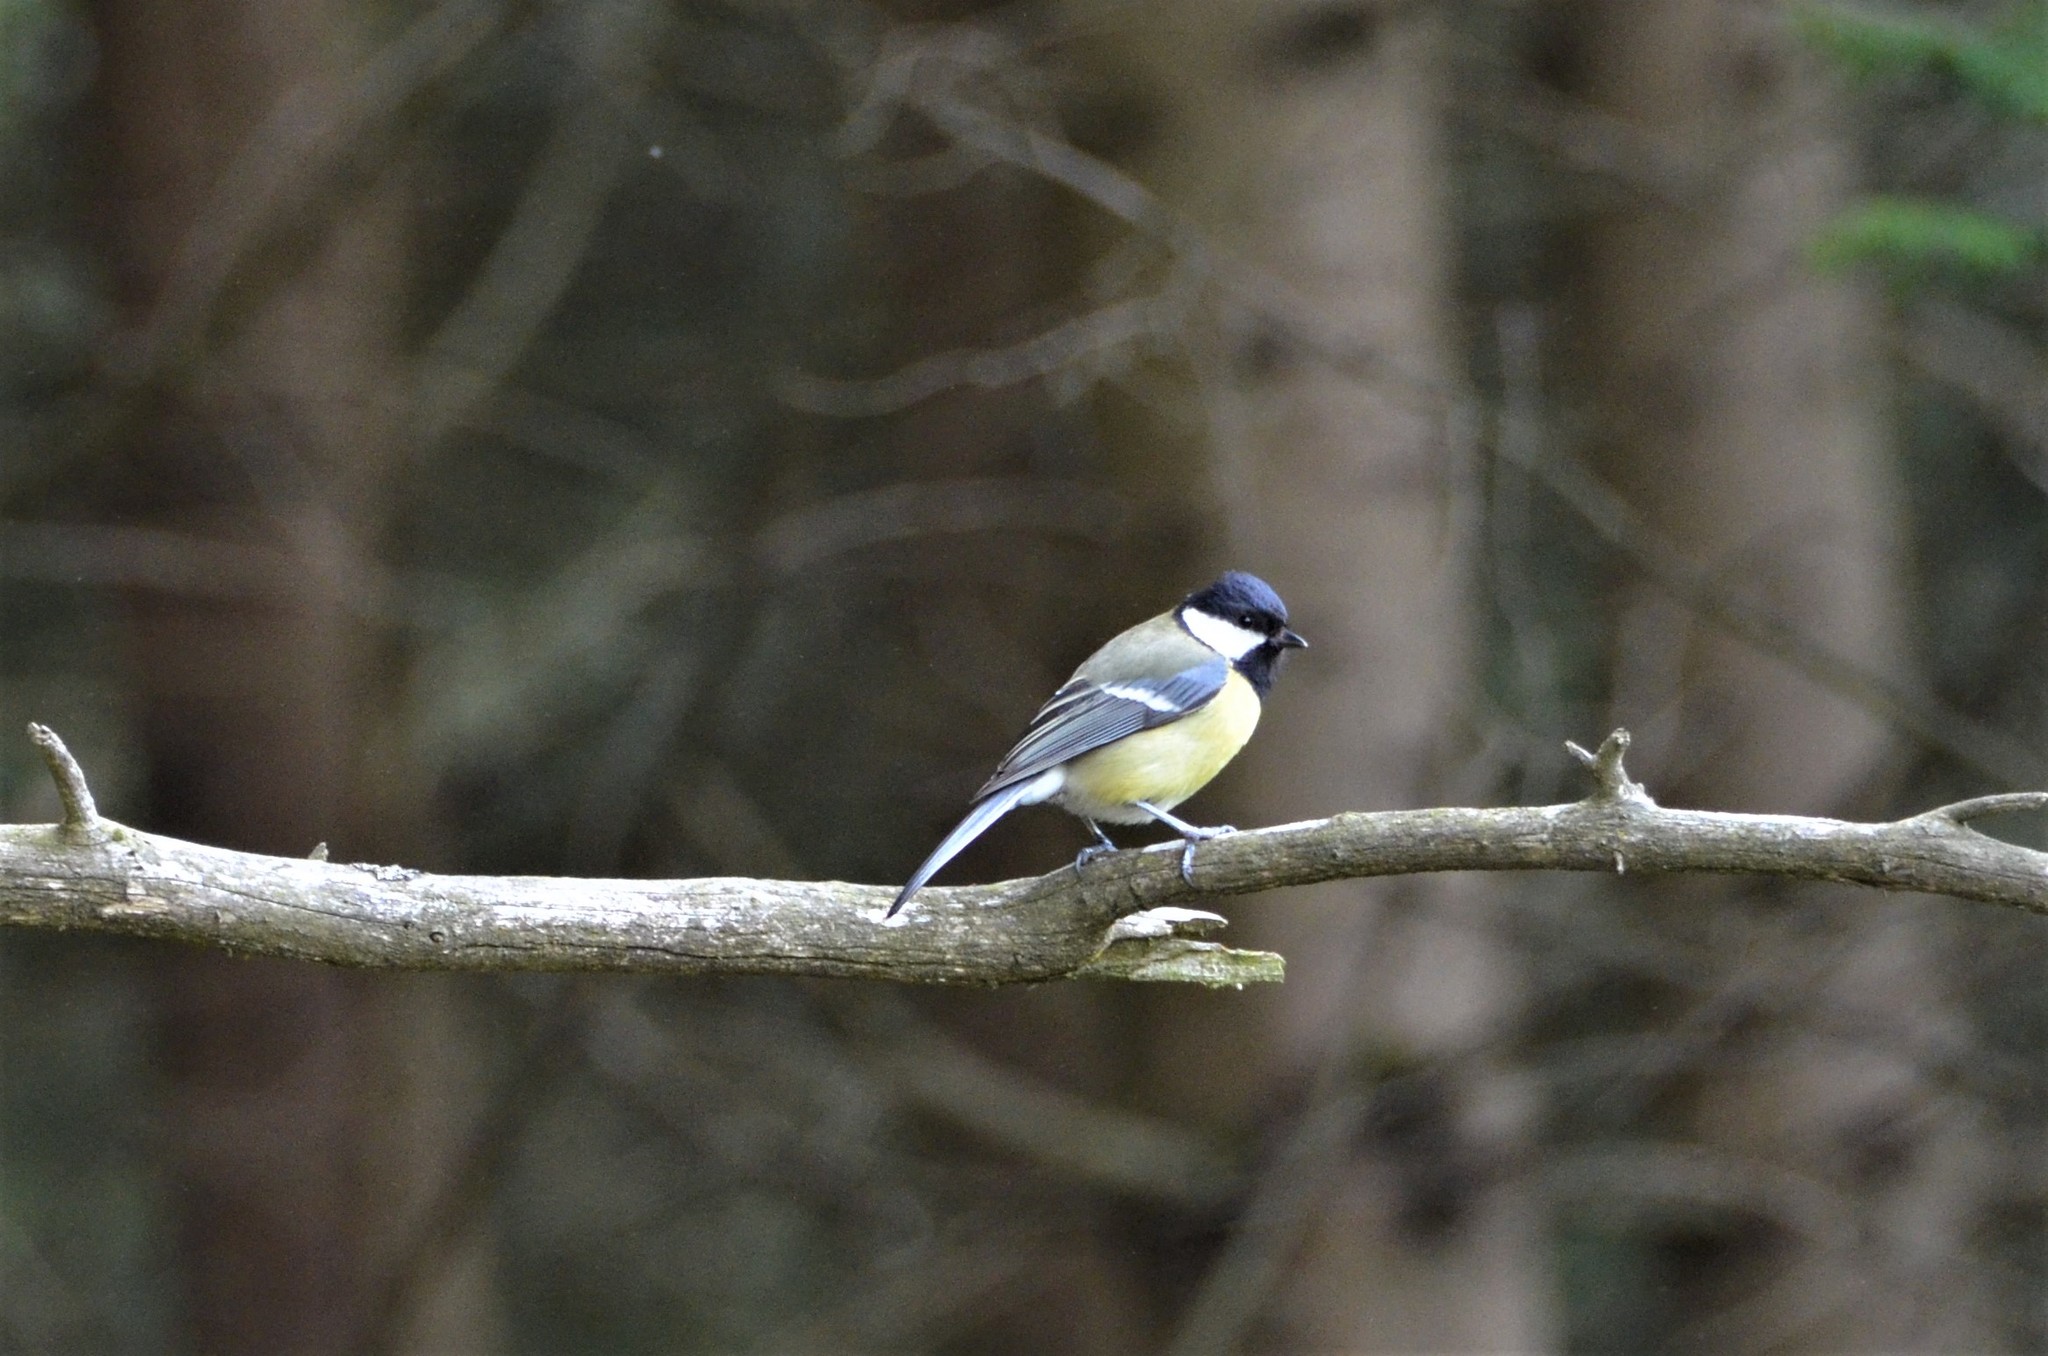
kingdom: Animalia
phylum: Chordata
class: Aves
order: Passeriformes
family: Paridae
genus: Parus
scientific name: Parus major
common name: Great tit
